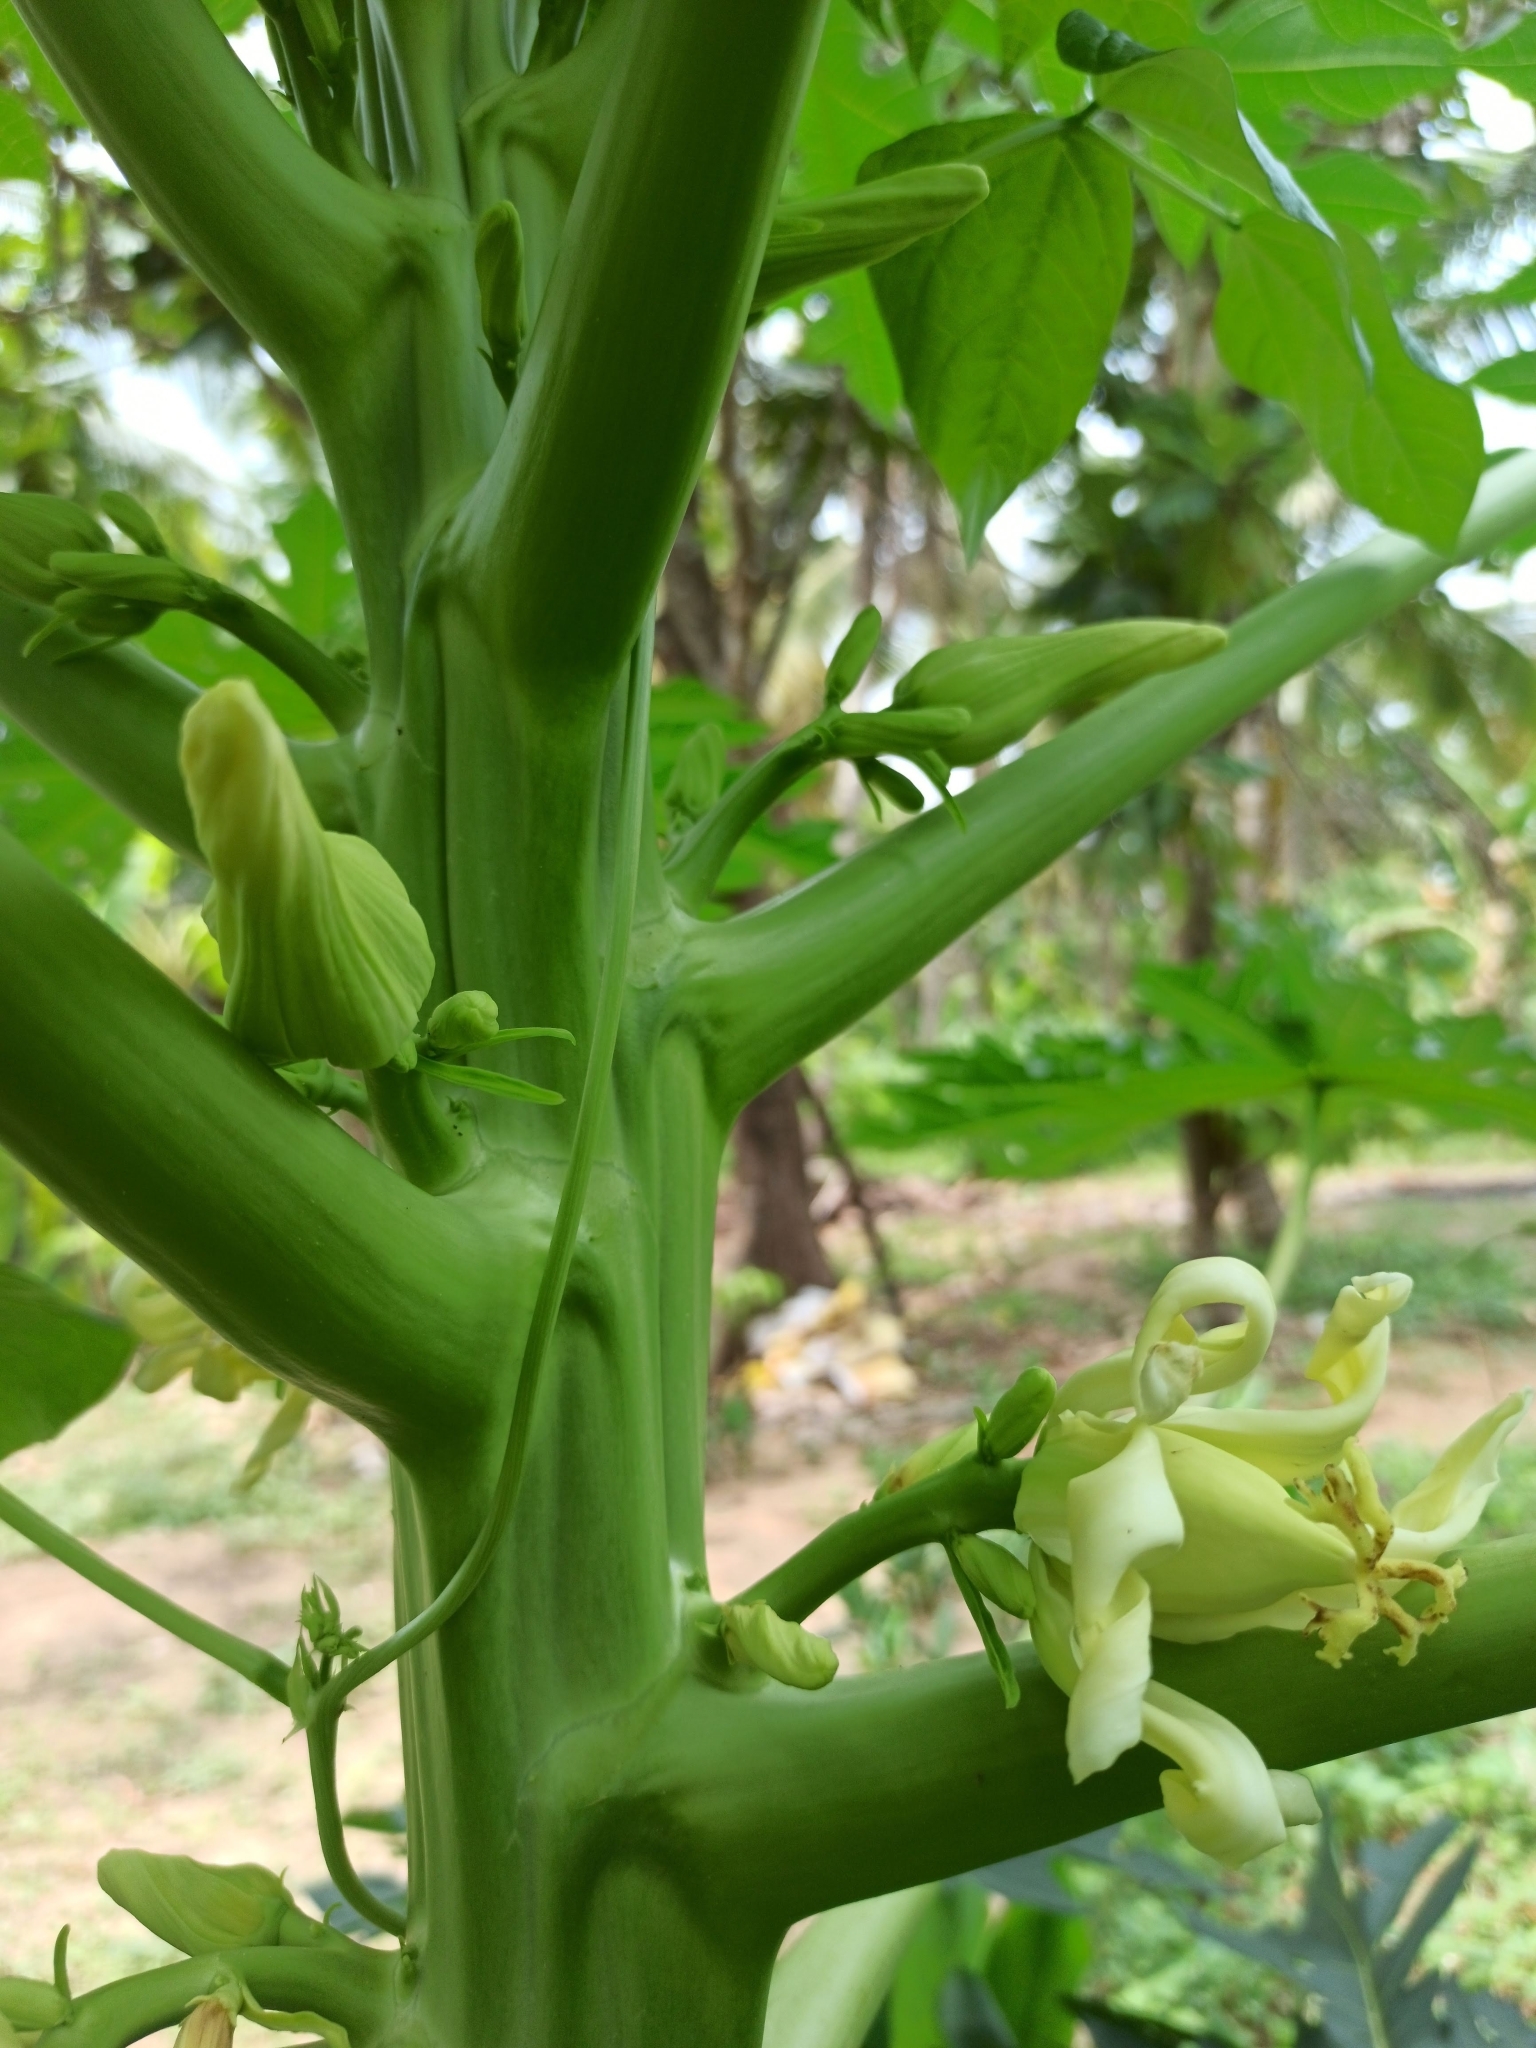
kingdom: Plantae
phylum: Tracheophyta
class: Magnoliopsida
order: Brassicales
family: Caricaceae
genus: Carica
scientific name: Carica papaya
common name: Papaya
